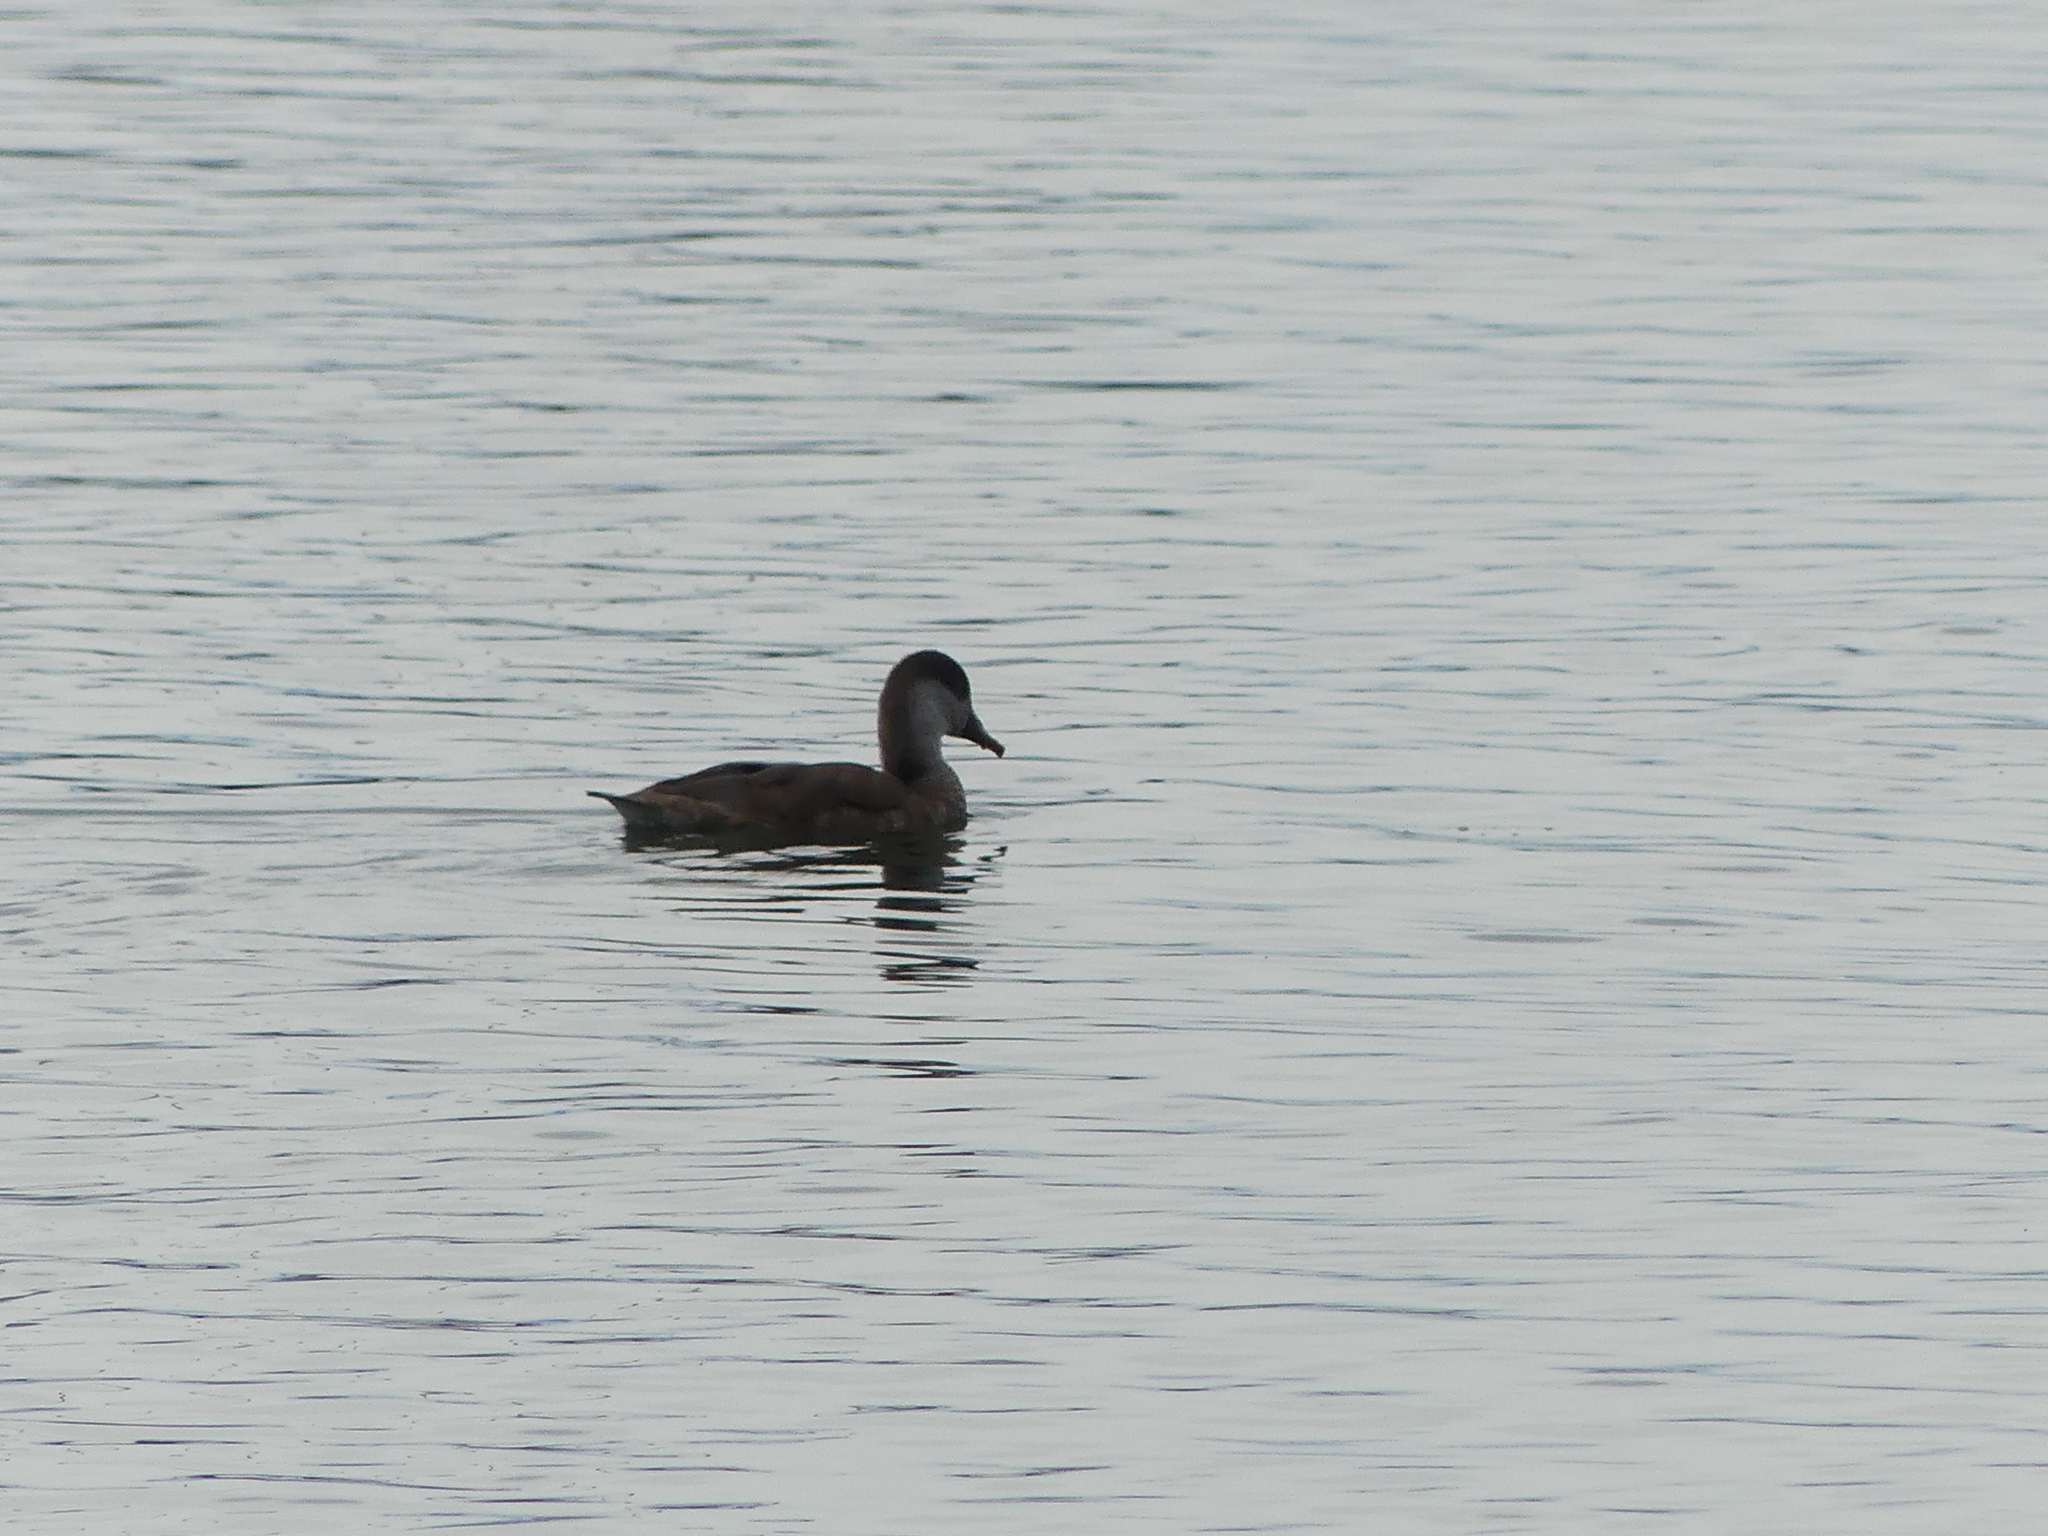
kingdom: Animalia
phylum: Chordata
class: Aves
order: Anseriformes
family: Anatidae
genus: Netta
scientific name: Netta rufina
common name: Red-crested pochard
